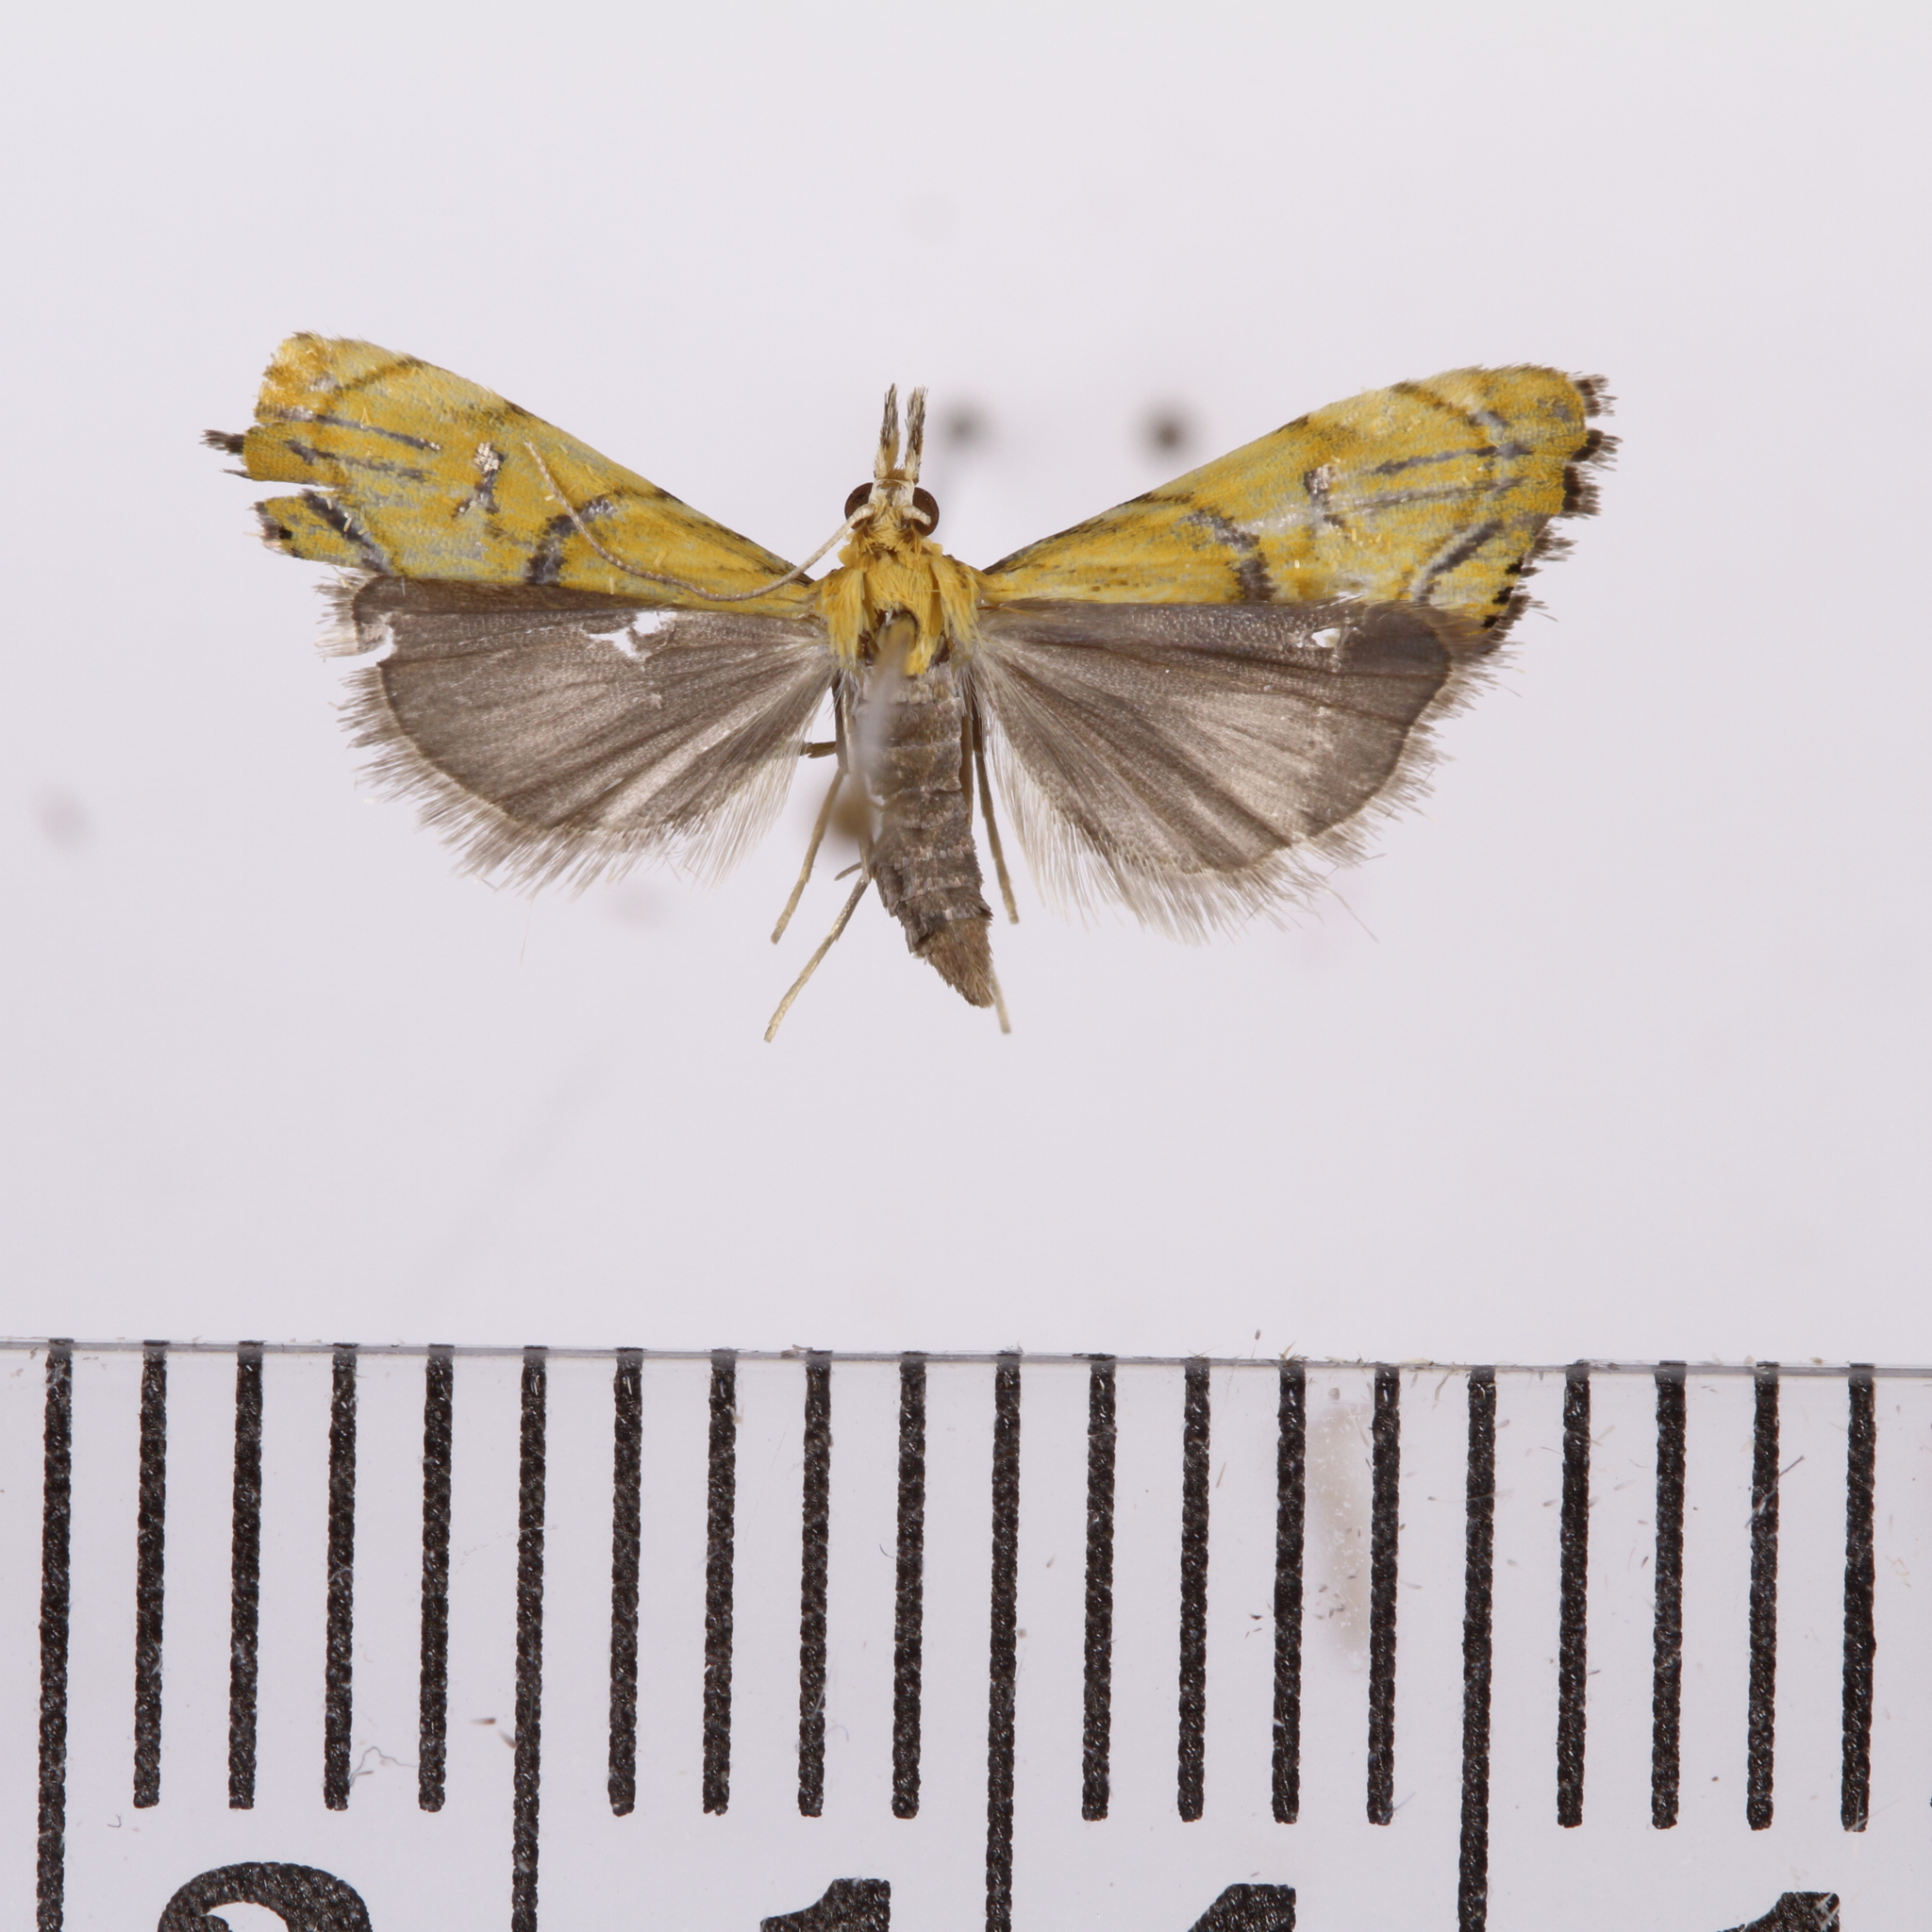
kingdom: Animalia
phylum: Arthropoda
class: Insecta
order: Lepidoptera
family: Crambidae
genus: Glaucocharis
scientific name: Glaucocharis auriscriptella
